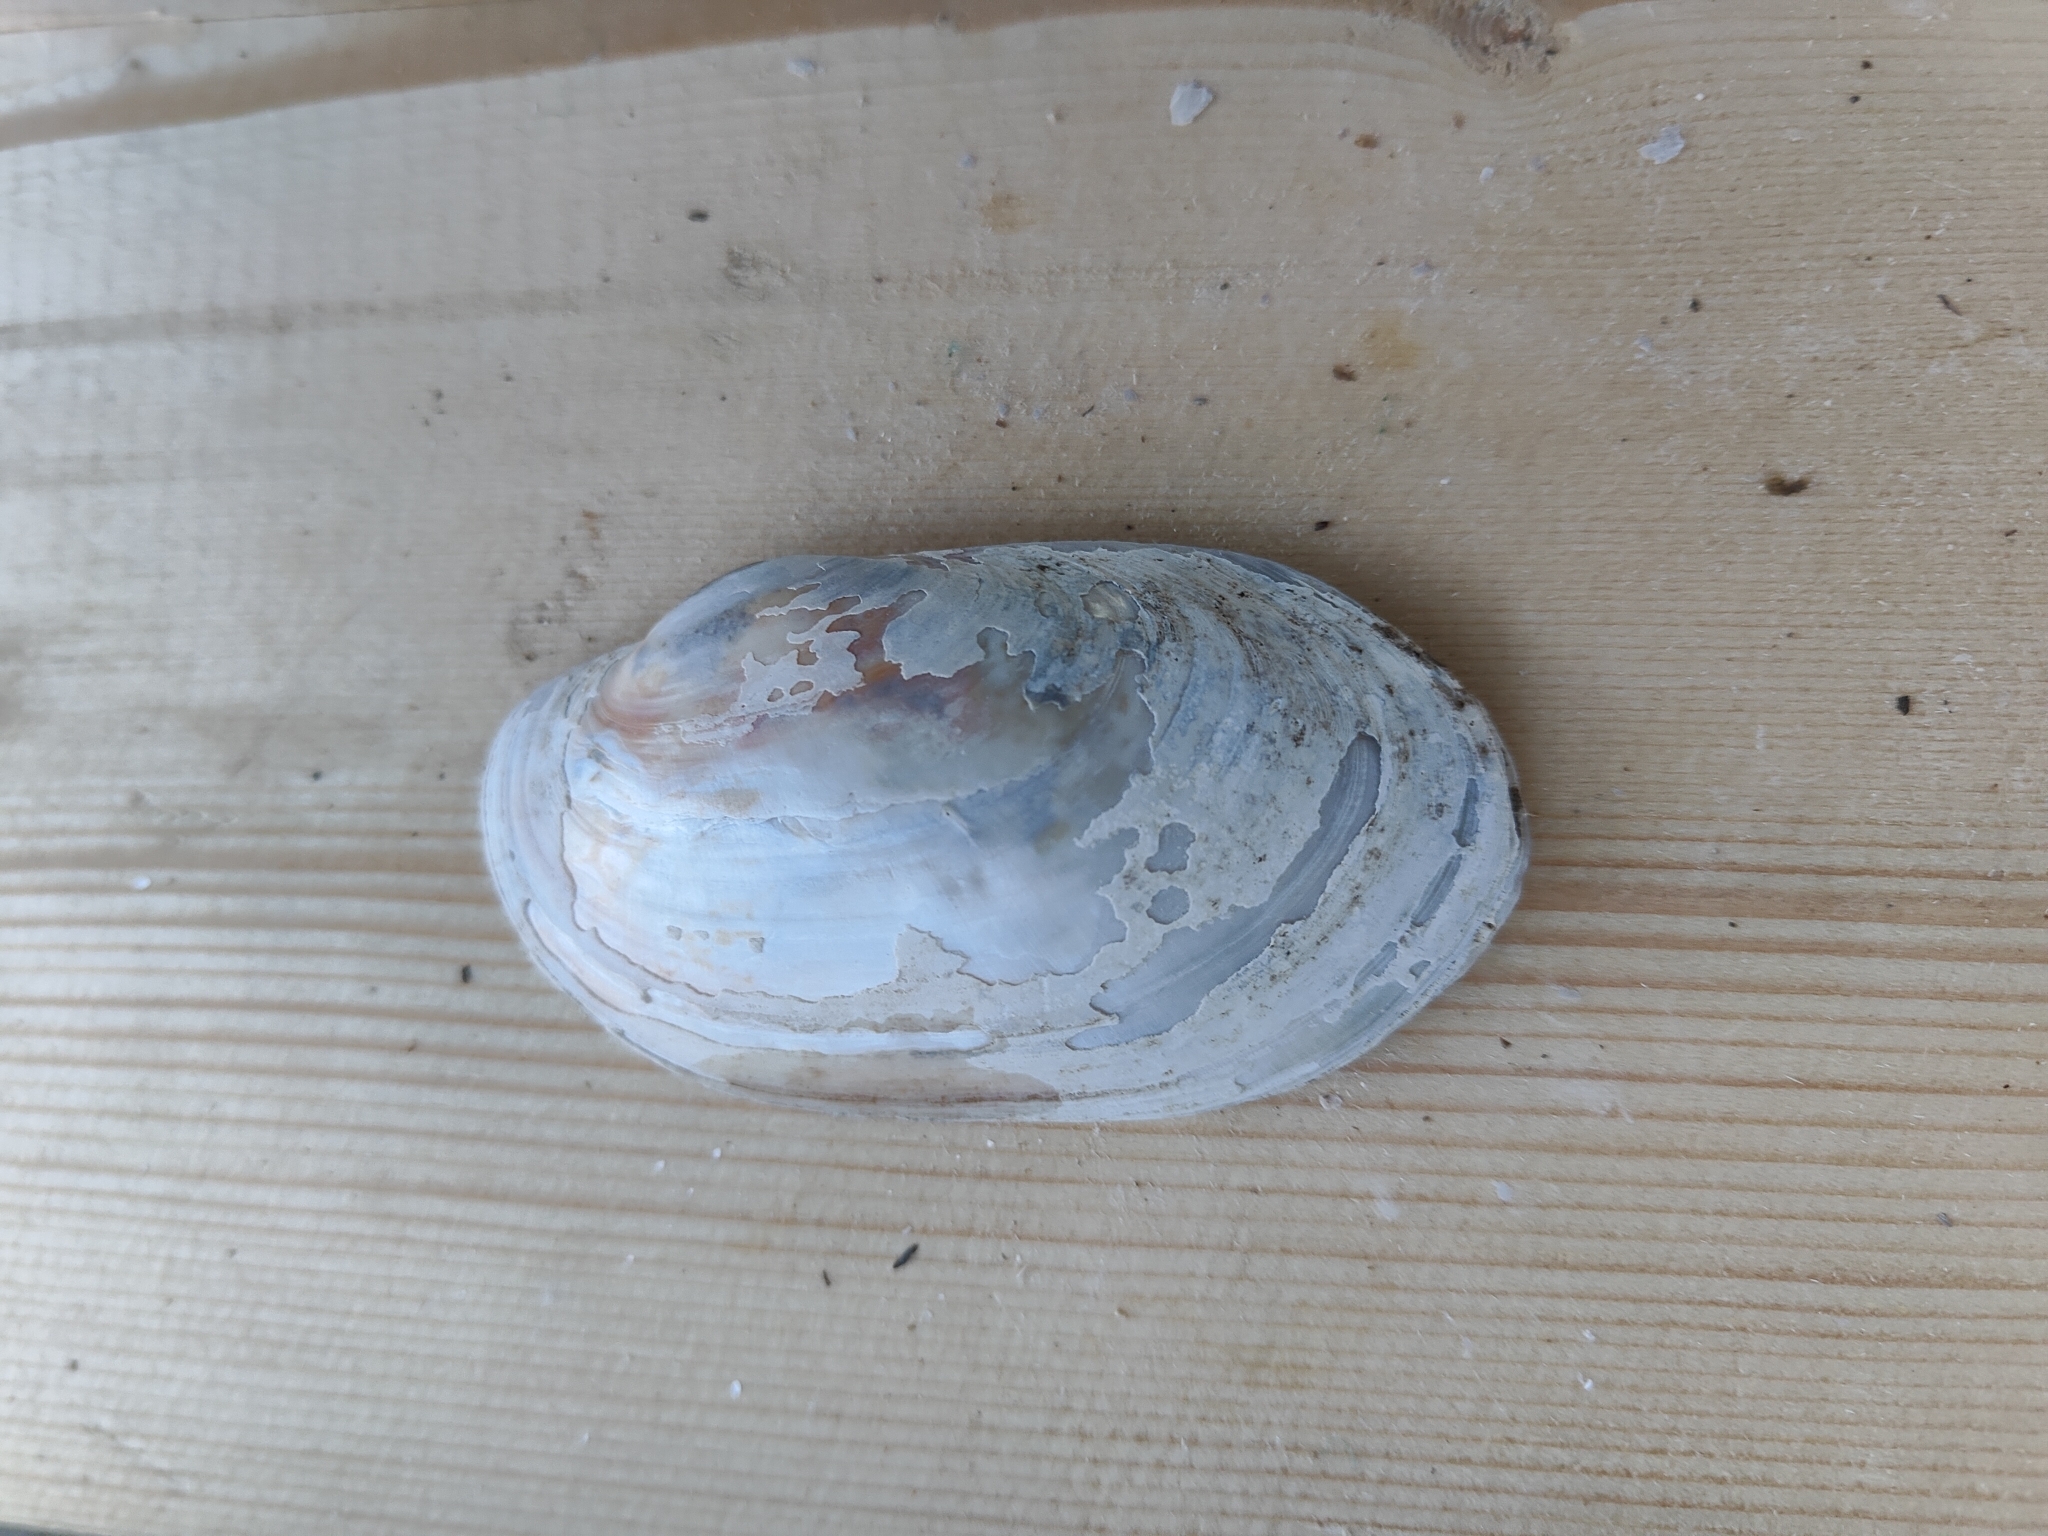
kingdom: Animalia
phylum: Mollusca
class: Bivalvia
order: Unionida
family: Unionidae
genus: Lampsilis
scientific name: Lampsilis siliquoidea
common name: Fatmucket
